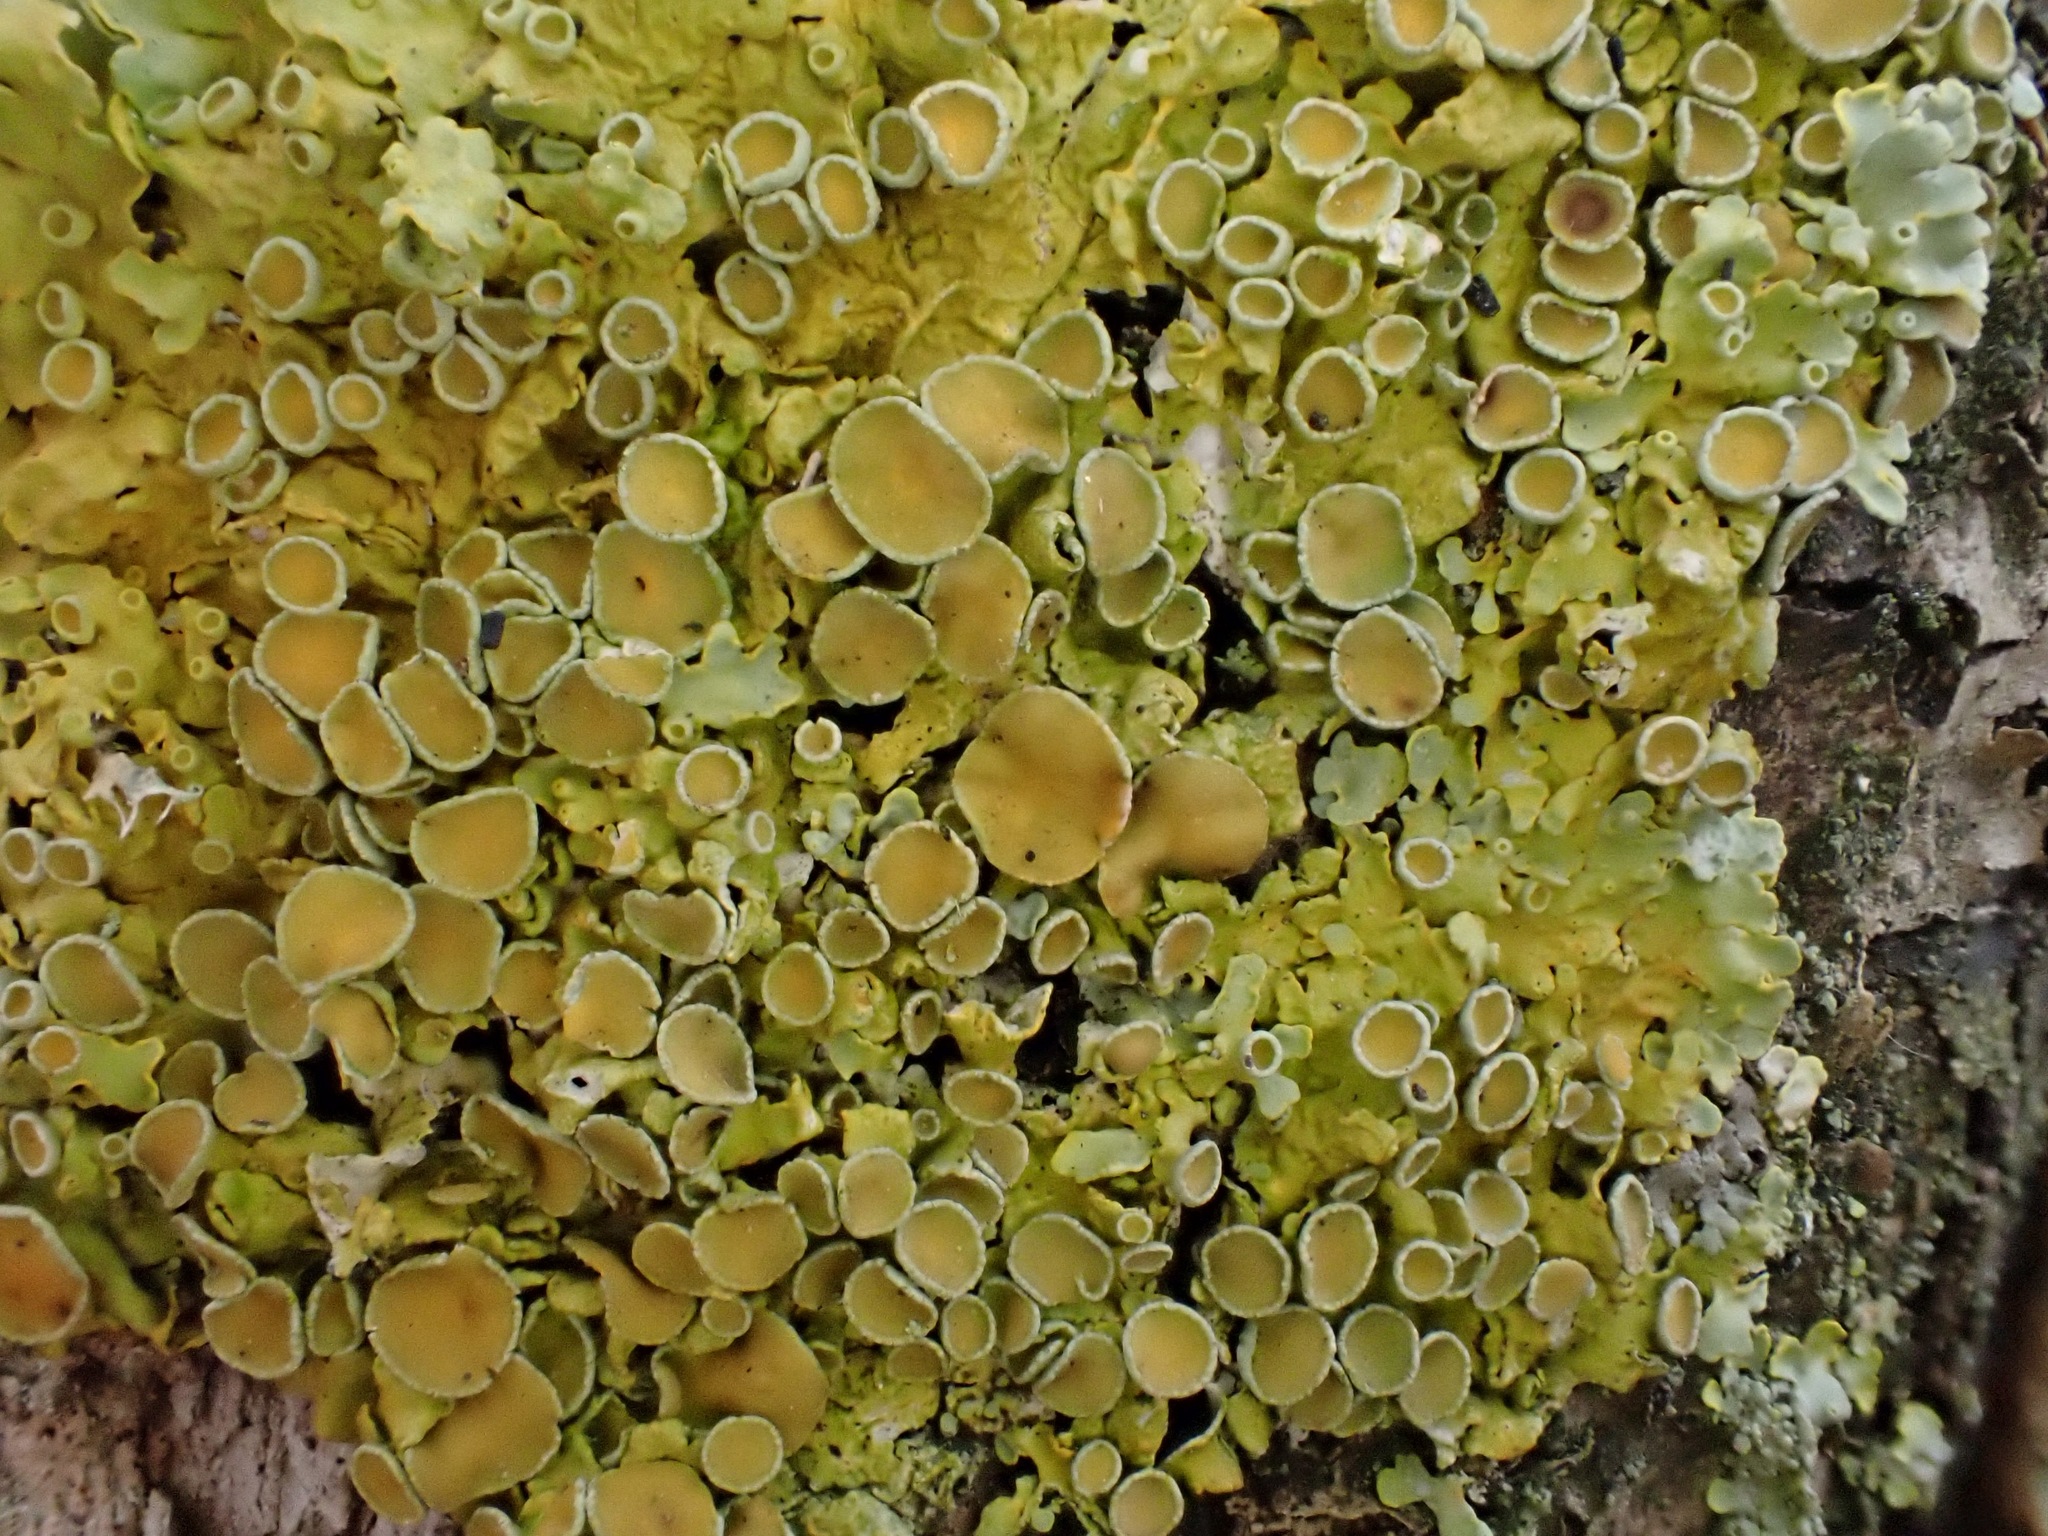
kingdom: Fungi
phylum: Ascomycota
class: Lecanoromycetes
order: Teloschistales
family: Teloschistaceae
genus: Xanthoria
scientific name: Xanthoria parietina
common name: Common orange lichen
